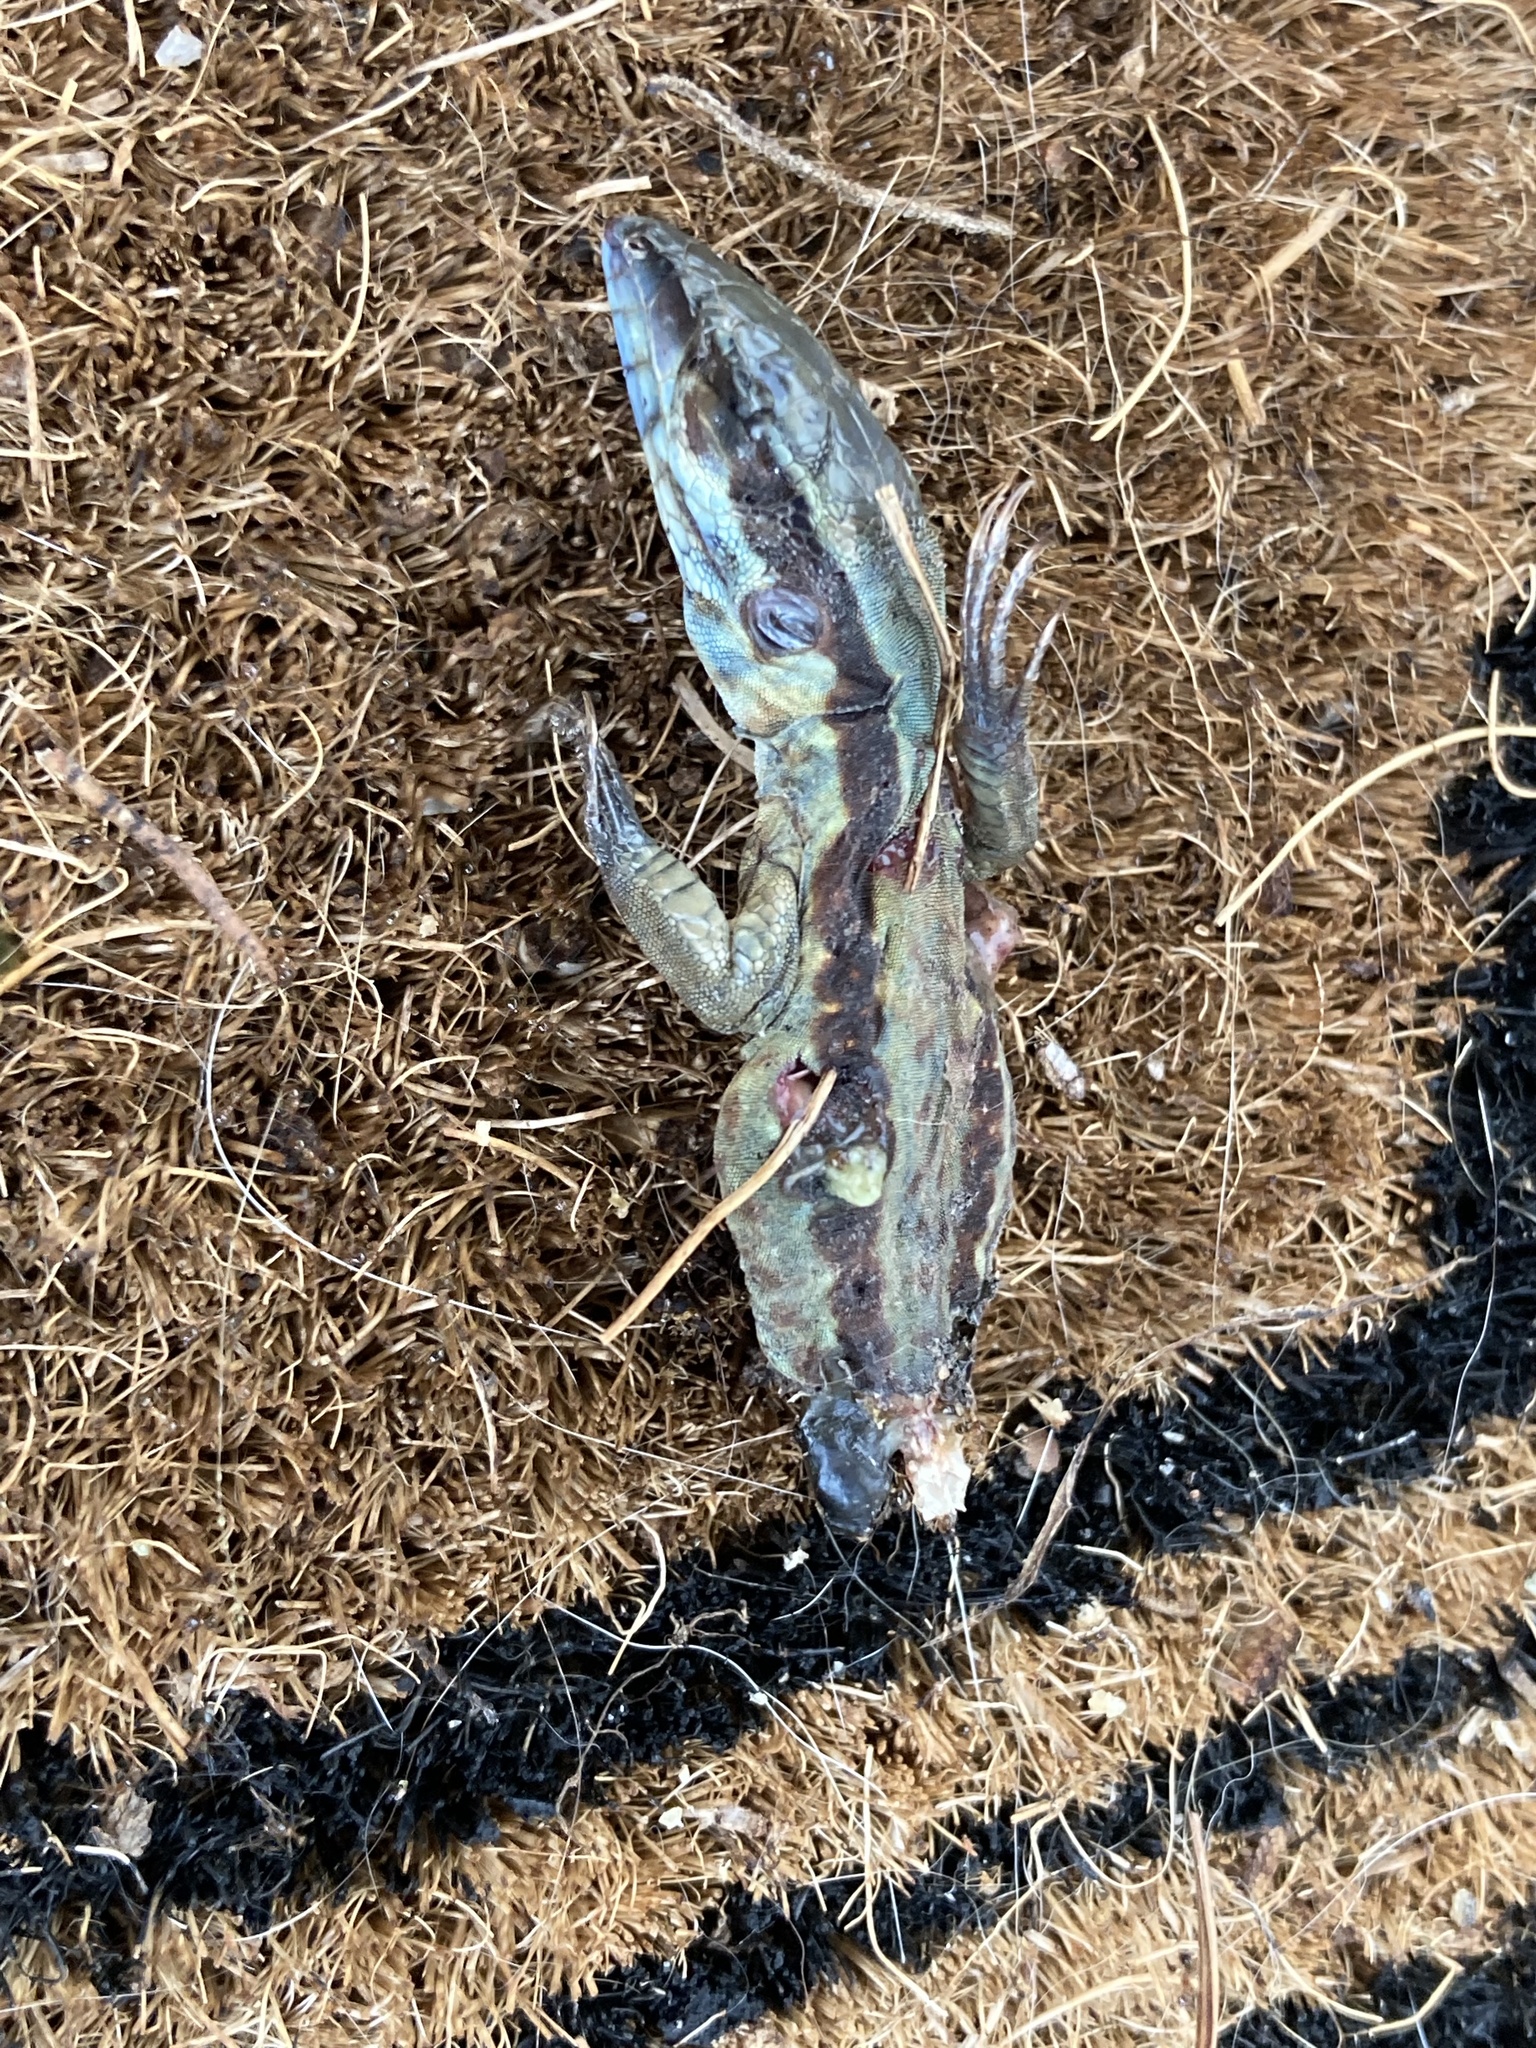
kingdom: Animalia
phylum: Chordata
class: Squamata
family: Teiidae
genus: Ameiva
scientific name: Ameiva ameiva
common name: Giant ameiva
